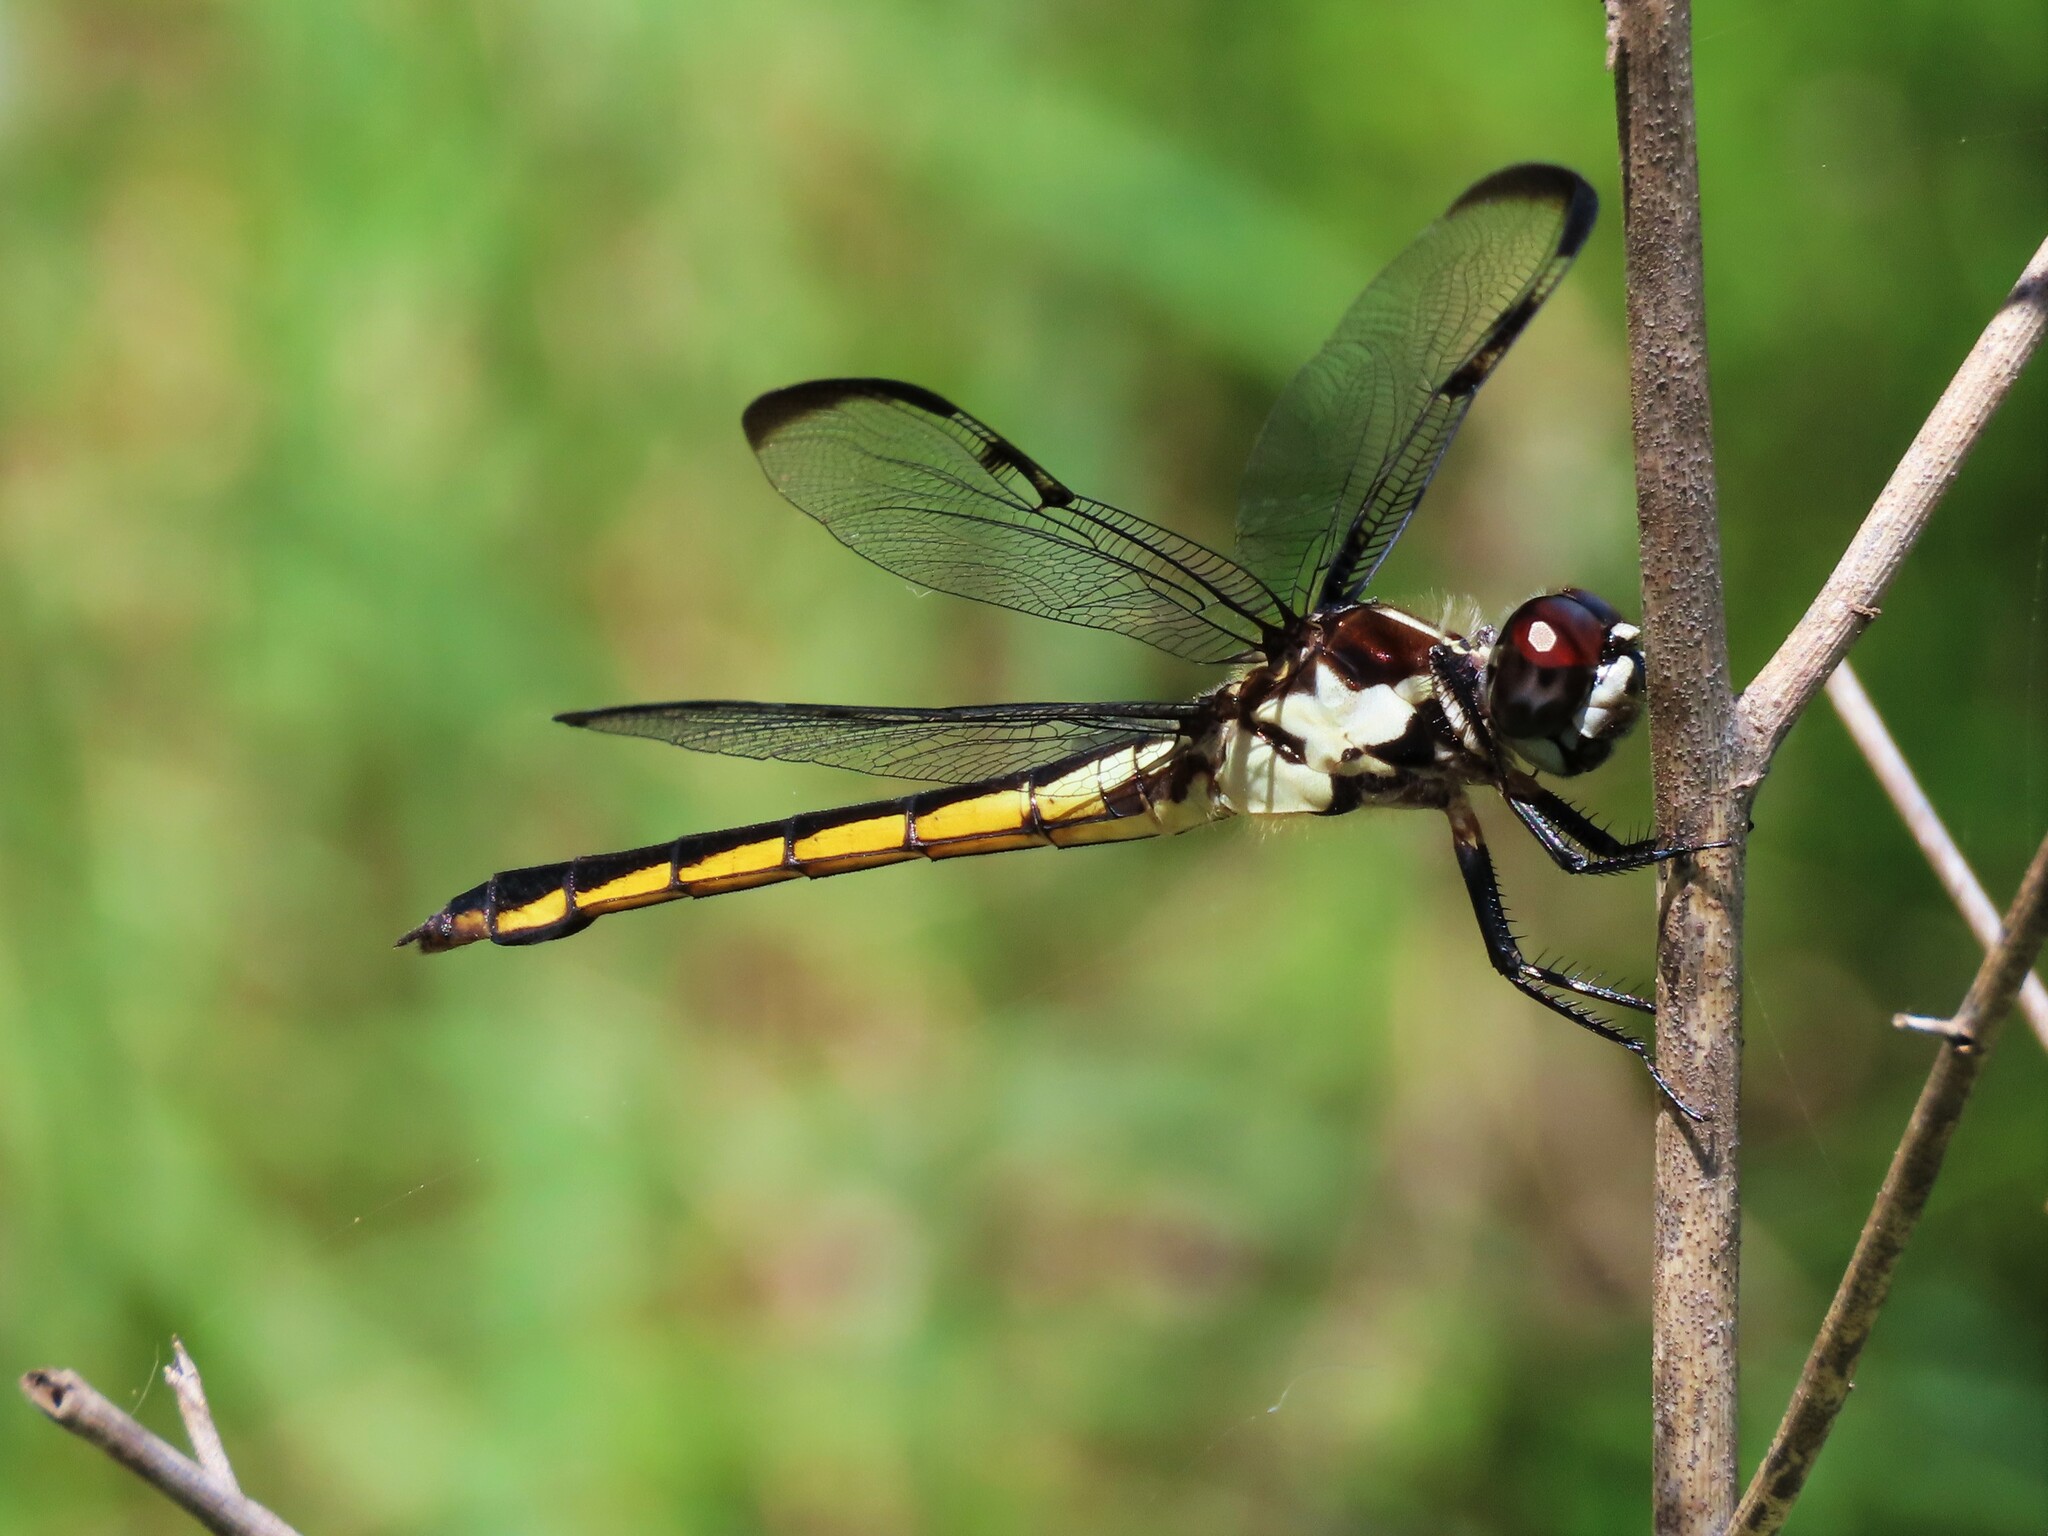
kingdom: Animalia
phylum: Arthropoda
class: Insecta
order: Odonata
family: Libellulidae
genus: Libellula
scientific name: Libellula axilena
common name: Bar-winged skimmer
